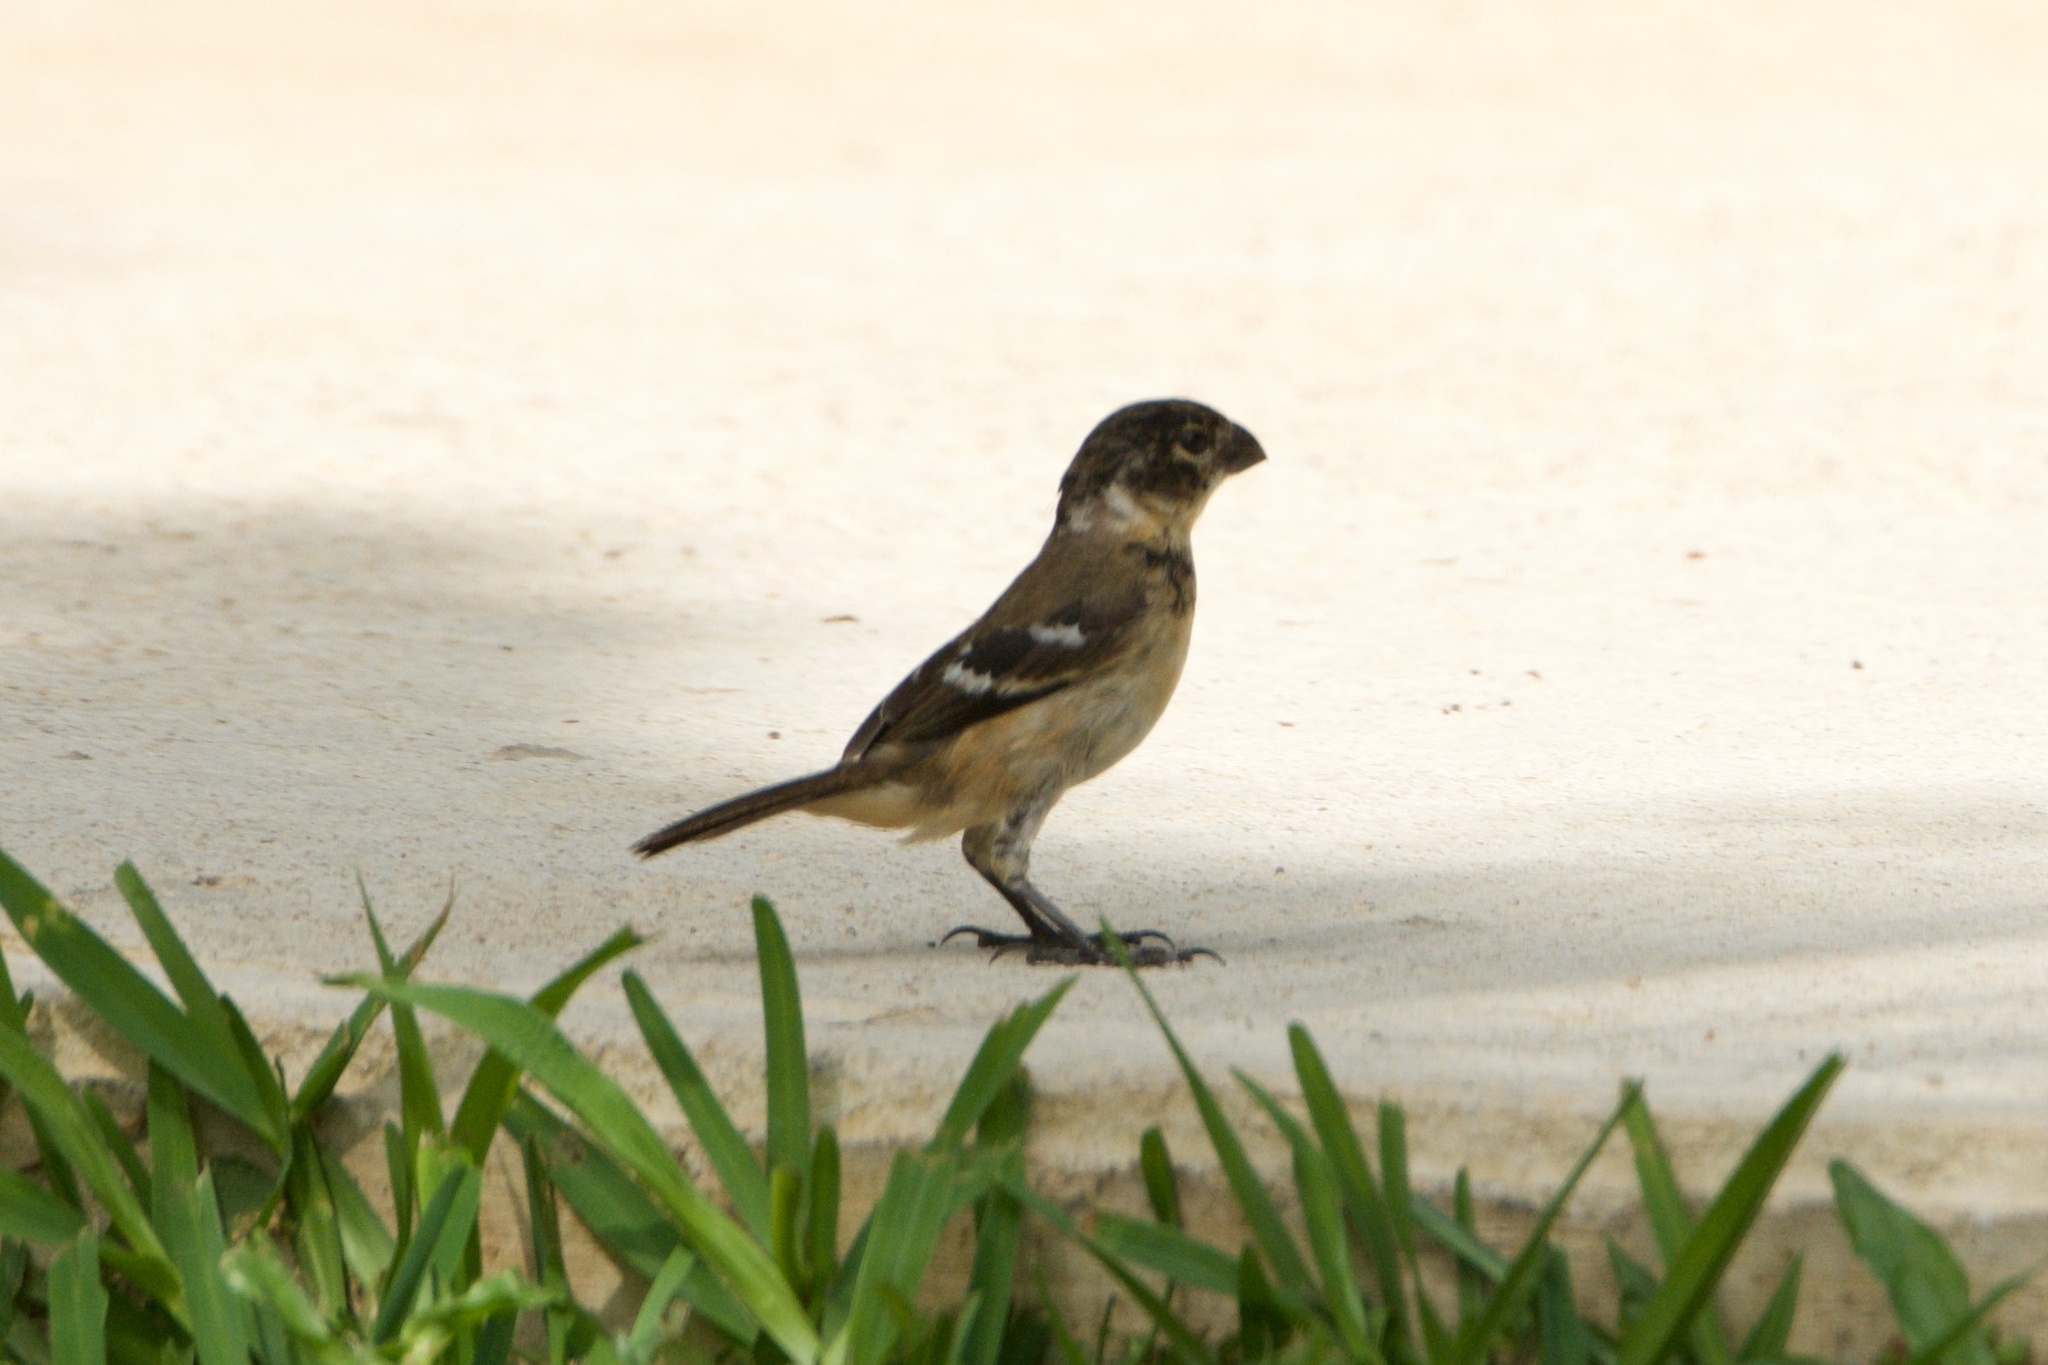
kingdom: Animalia
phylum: Chordata
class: Aves
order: Passeriformes
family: Thraupidae
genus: Sporophila
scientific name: Sporophila morelleti
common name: Morelet's seedeater
